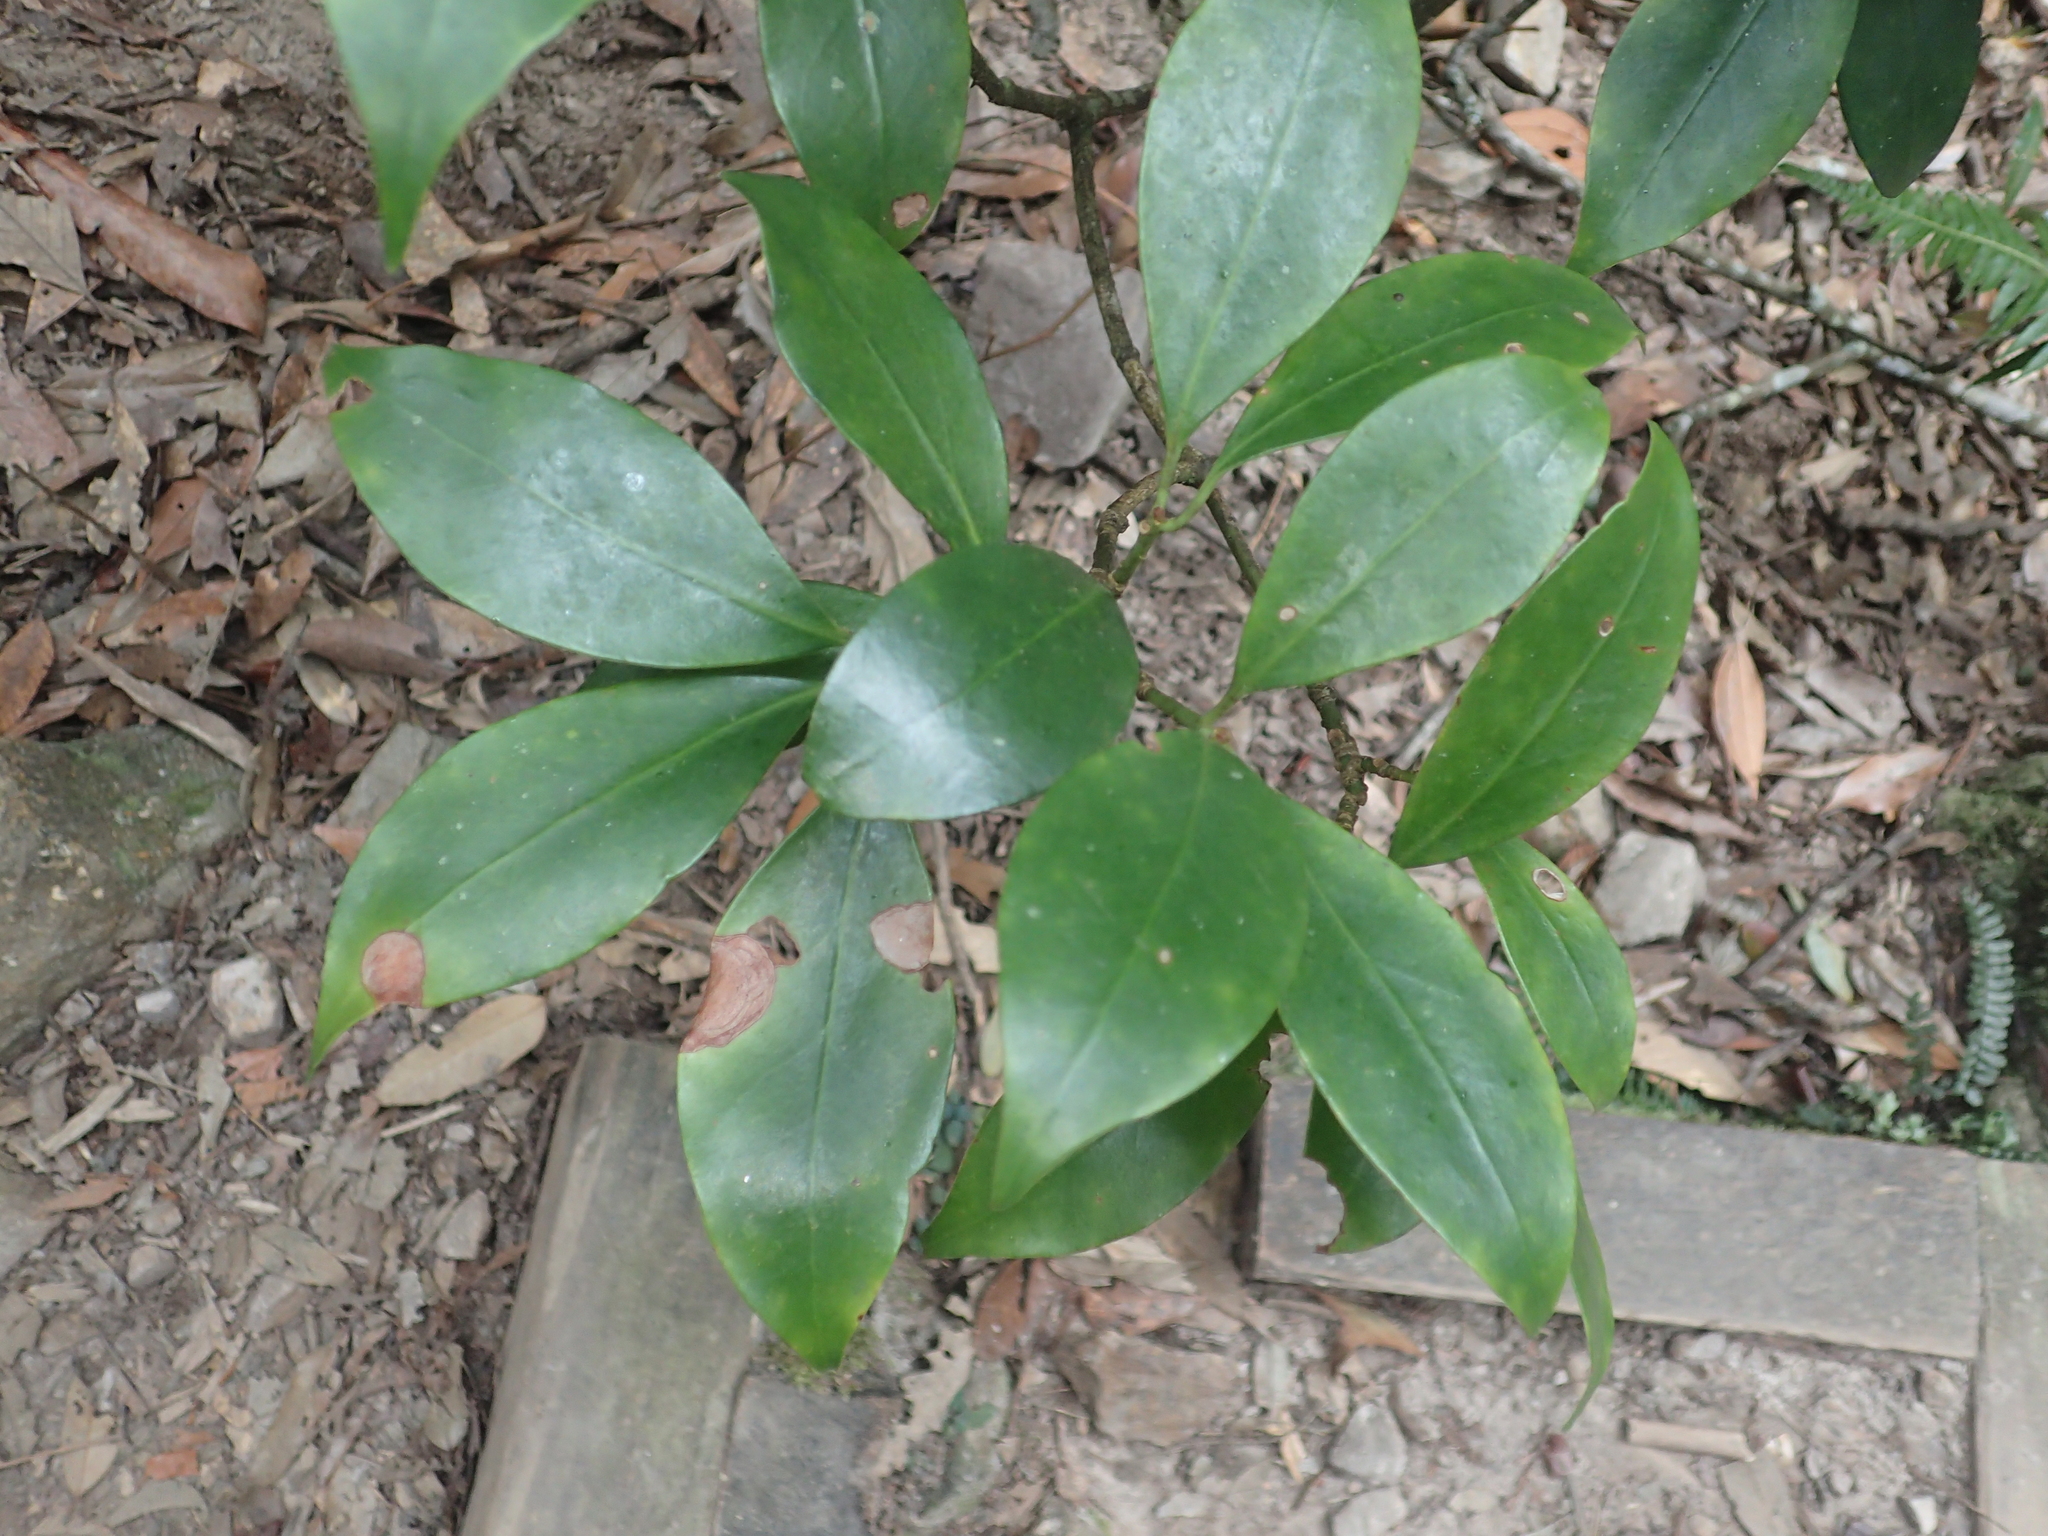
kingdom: Plantae
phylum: Tracheophyta
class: Magnoliopsida
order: Austrobaileyales
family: Schisandraceae
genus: Illicium
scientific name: Illicium anisatum
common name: Sacred anisetree
